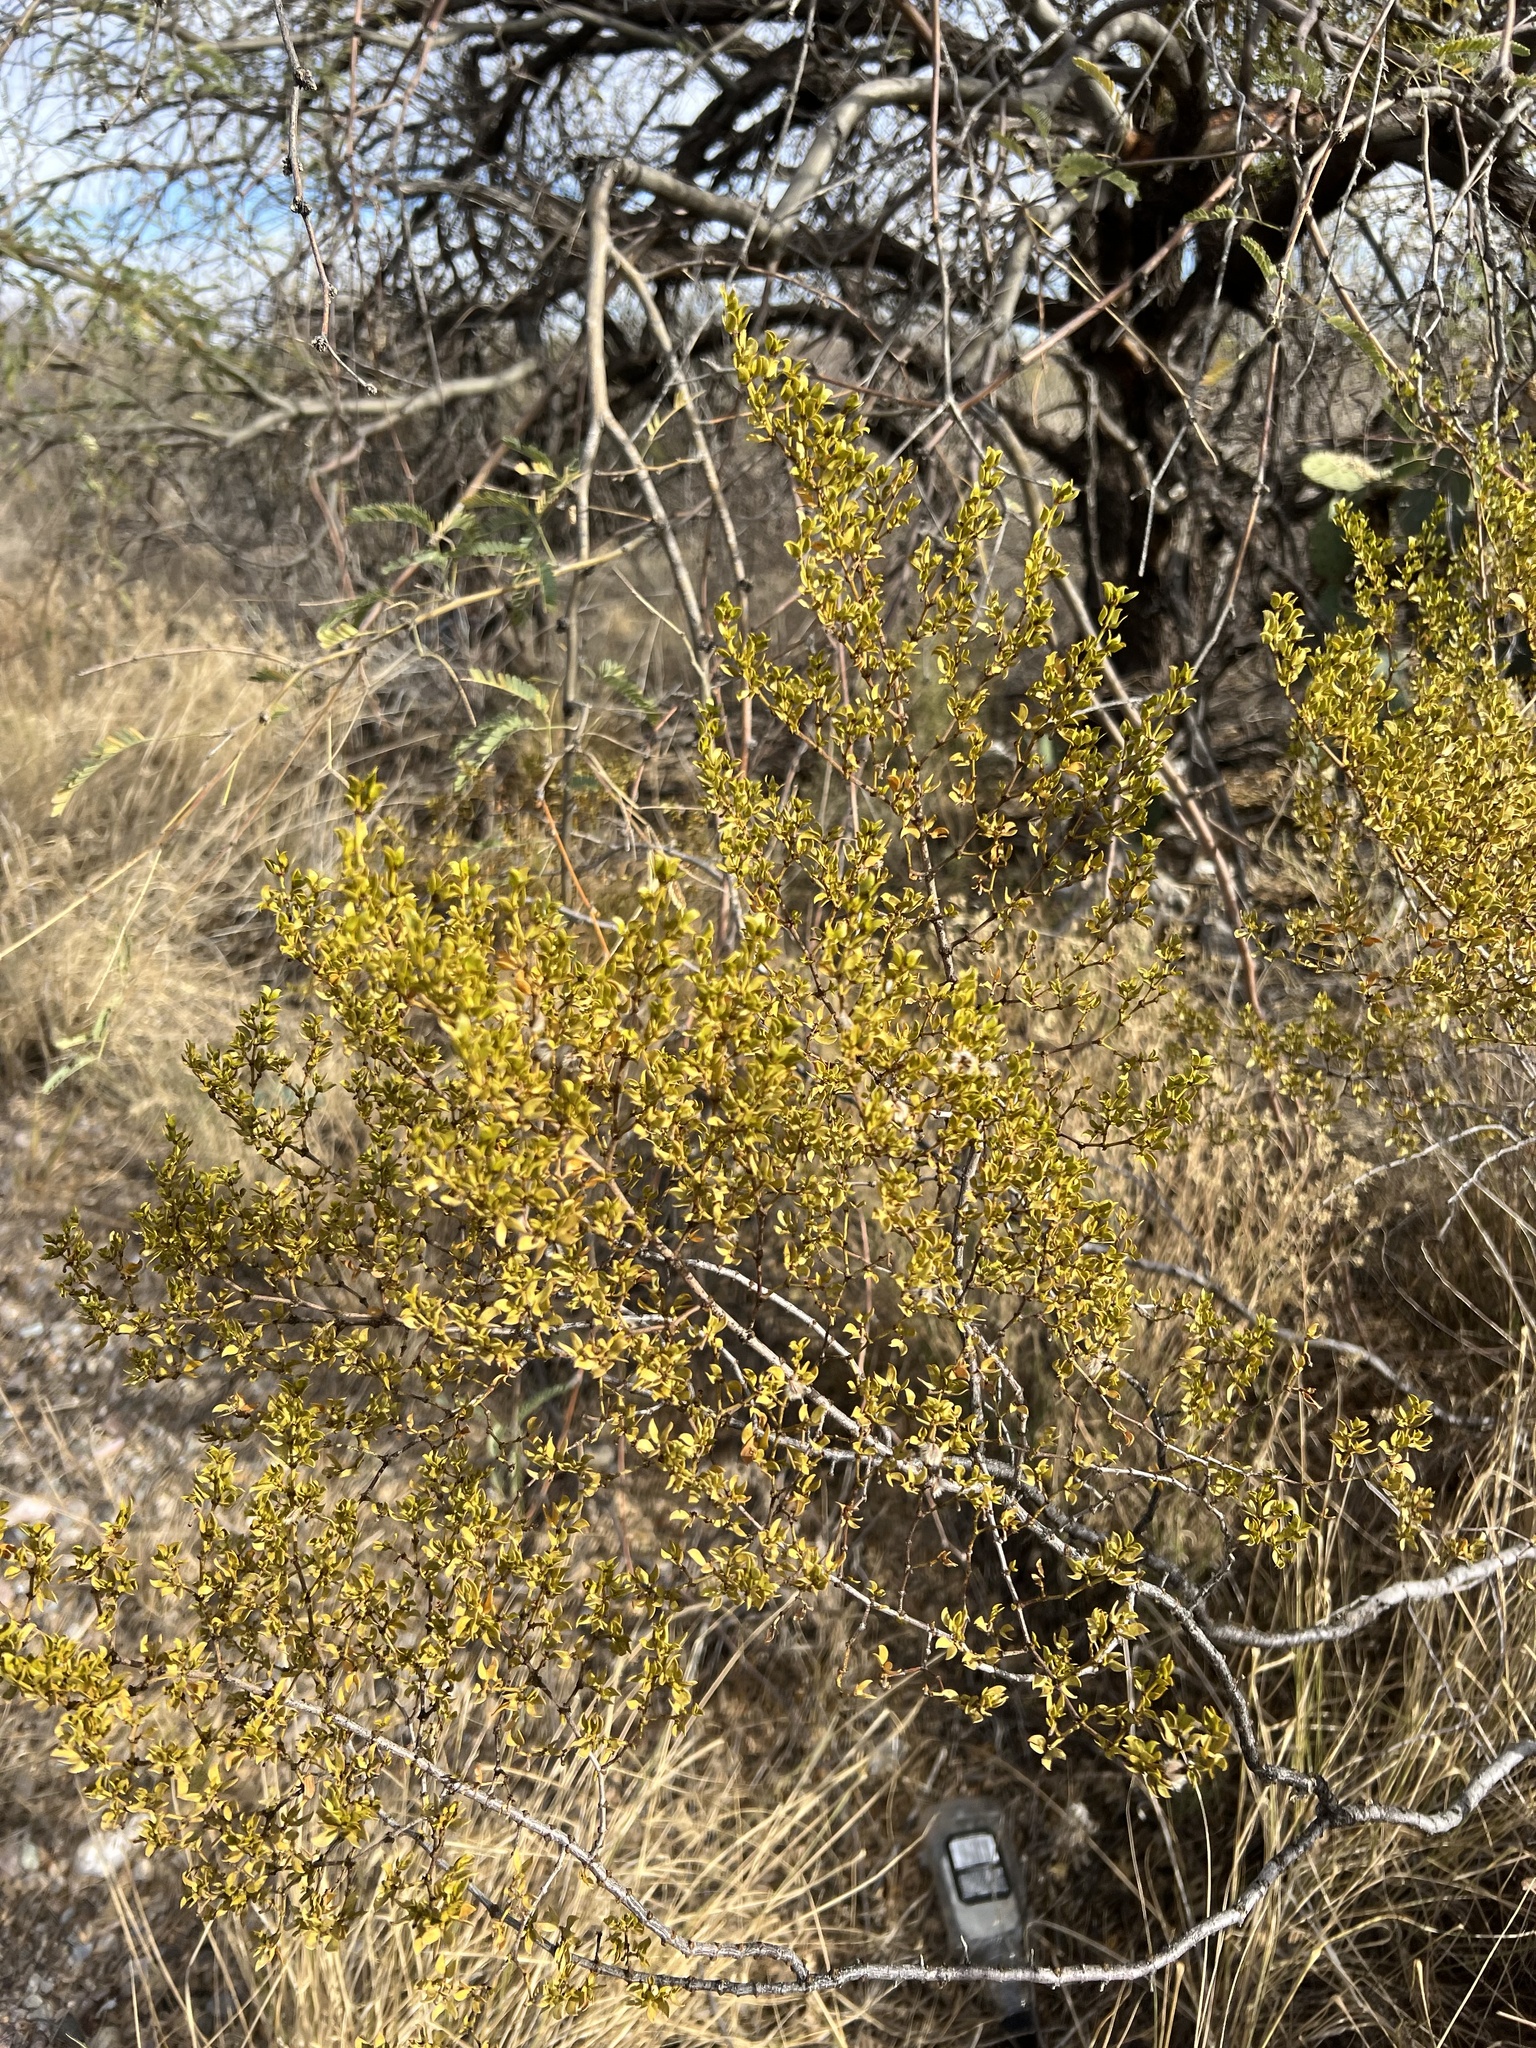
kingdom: Plantae
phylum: Tracheophyta
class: Magnoliopsida
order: Zygophyllales
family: Zygophyllaceae
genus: Larrea
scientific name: Larrea tridentata
